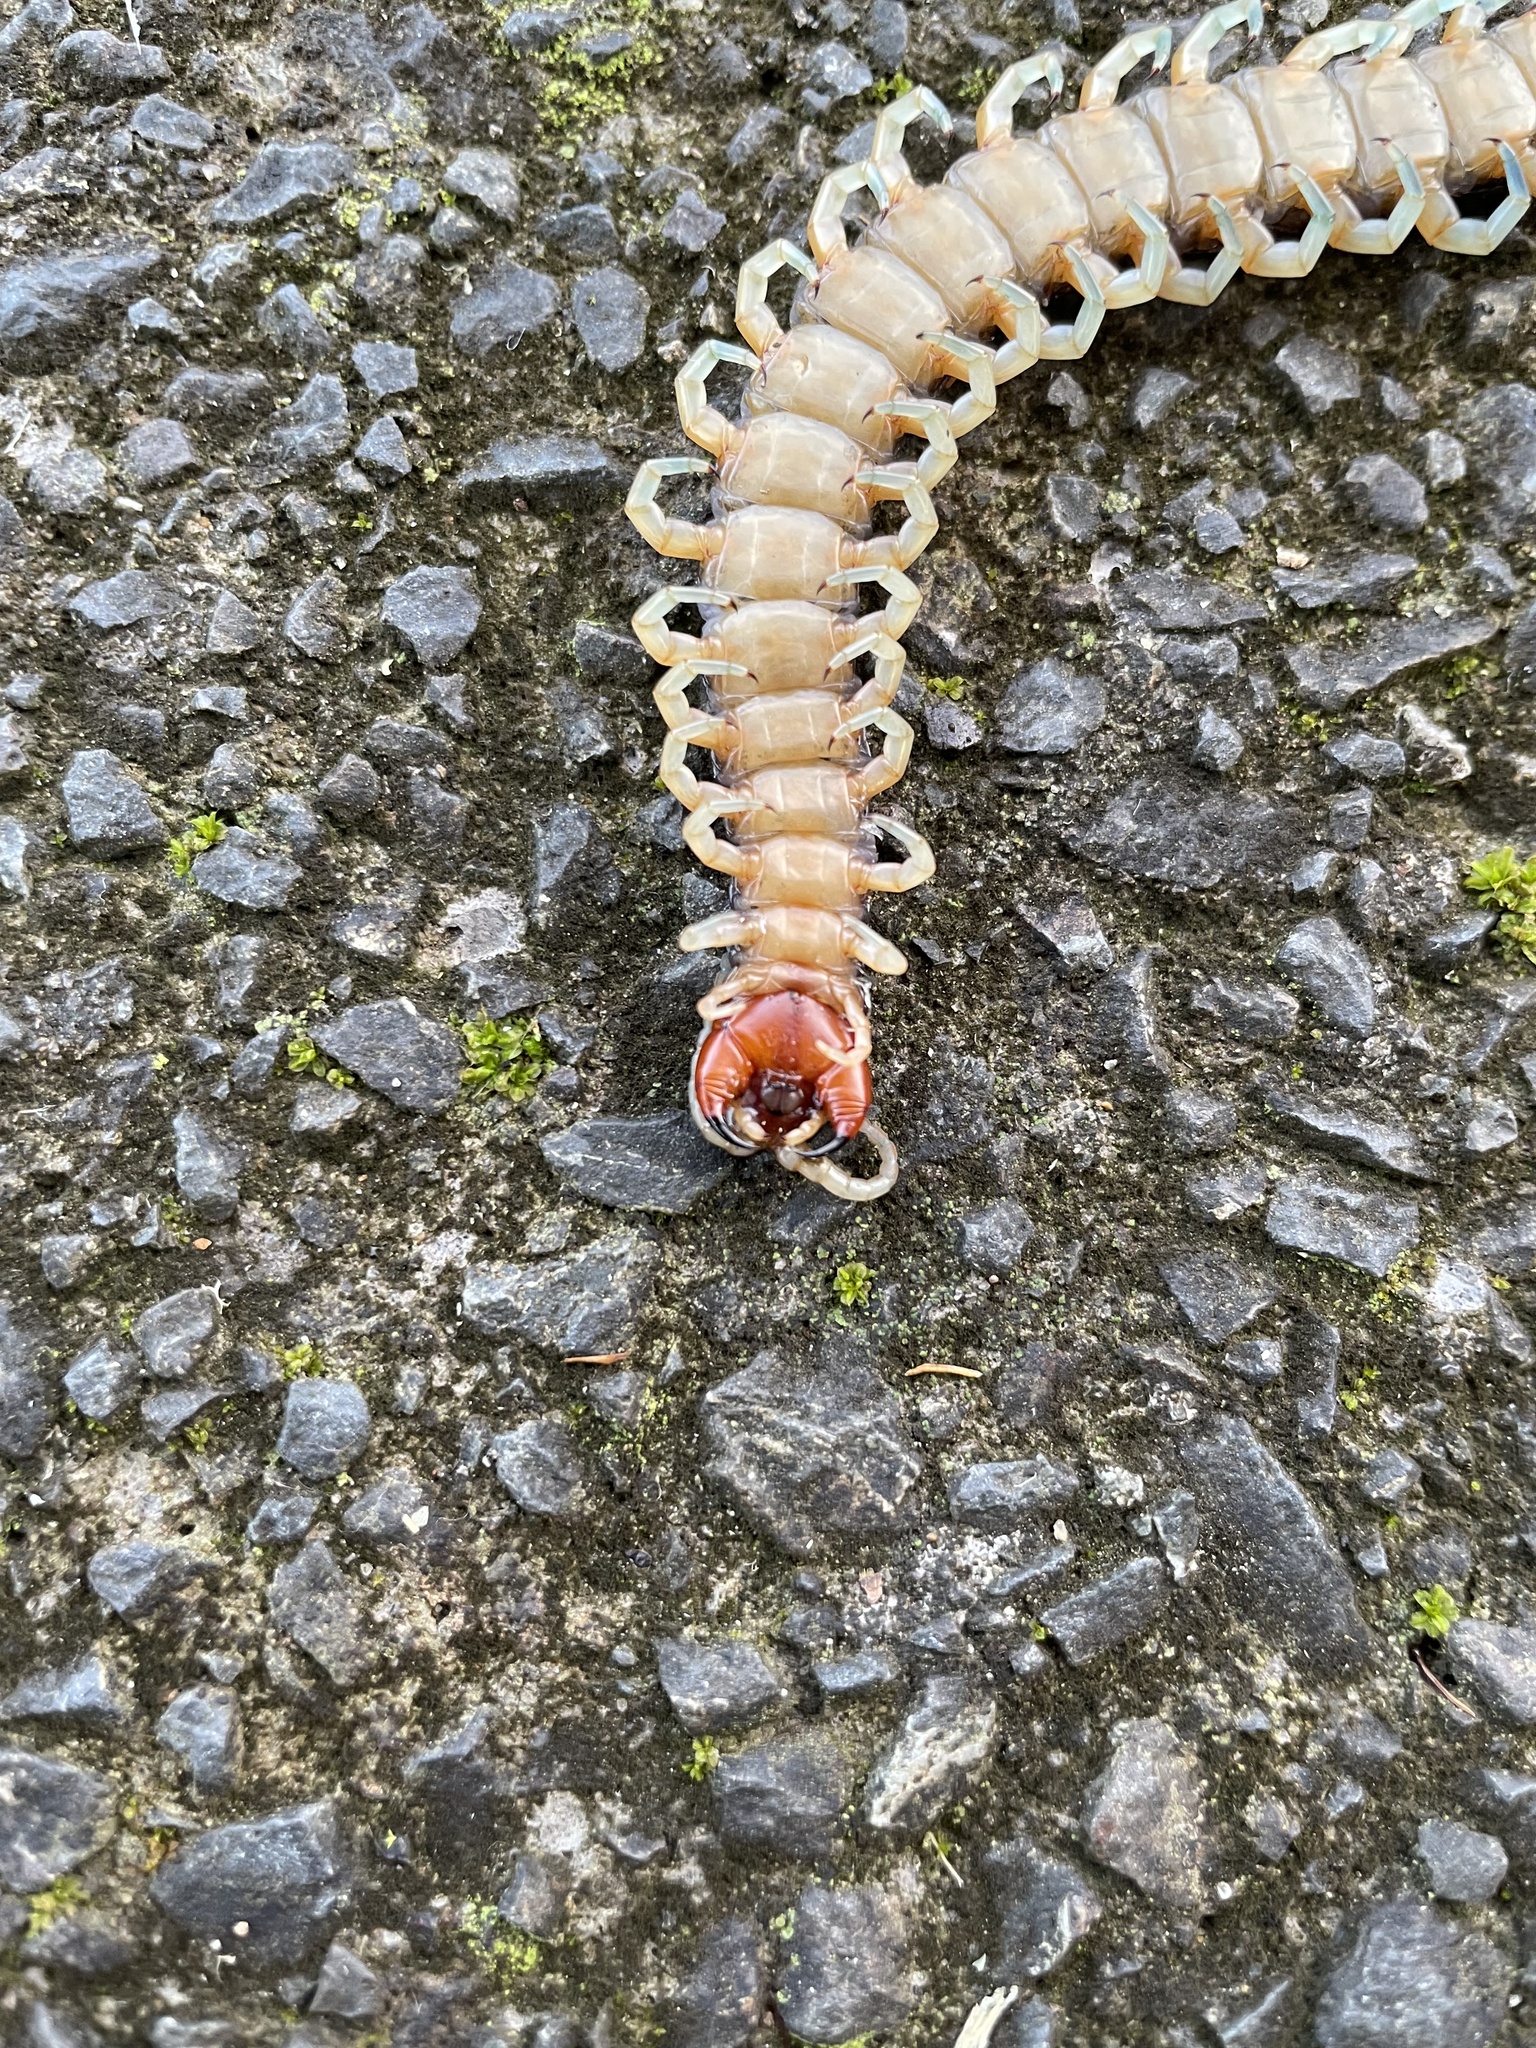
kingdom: Animalia
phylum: Arthropoda
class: Chilopoda
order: Scolopendromorpha
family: Scolopendridae
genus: Cormocephalus
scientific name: Cormocephalus rubriceps
